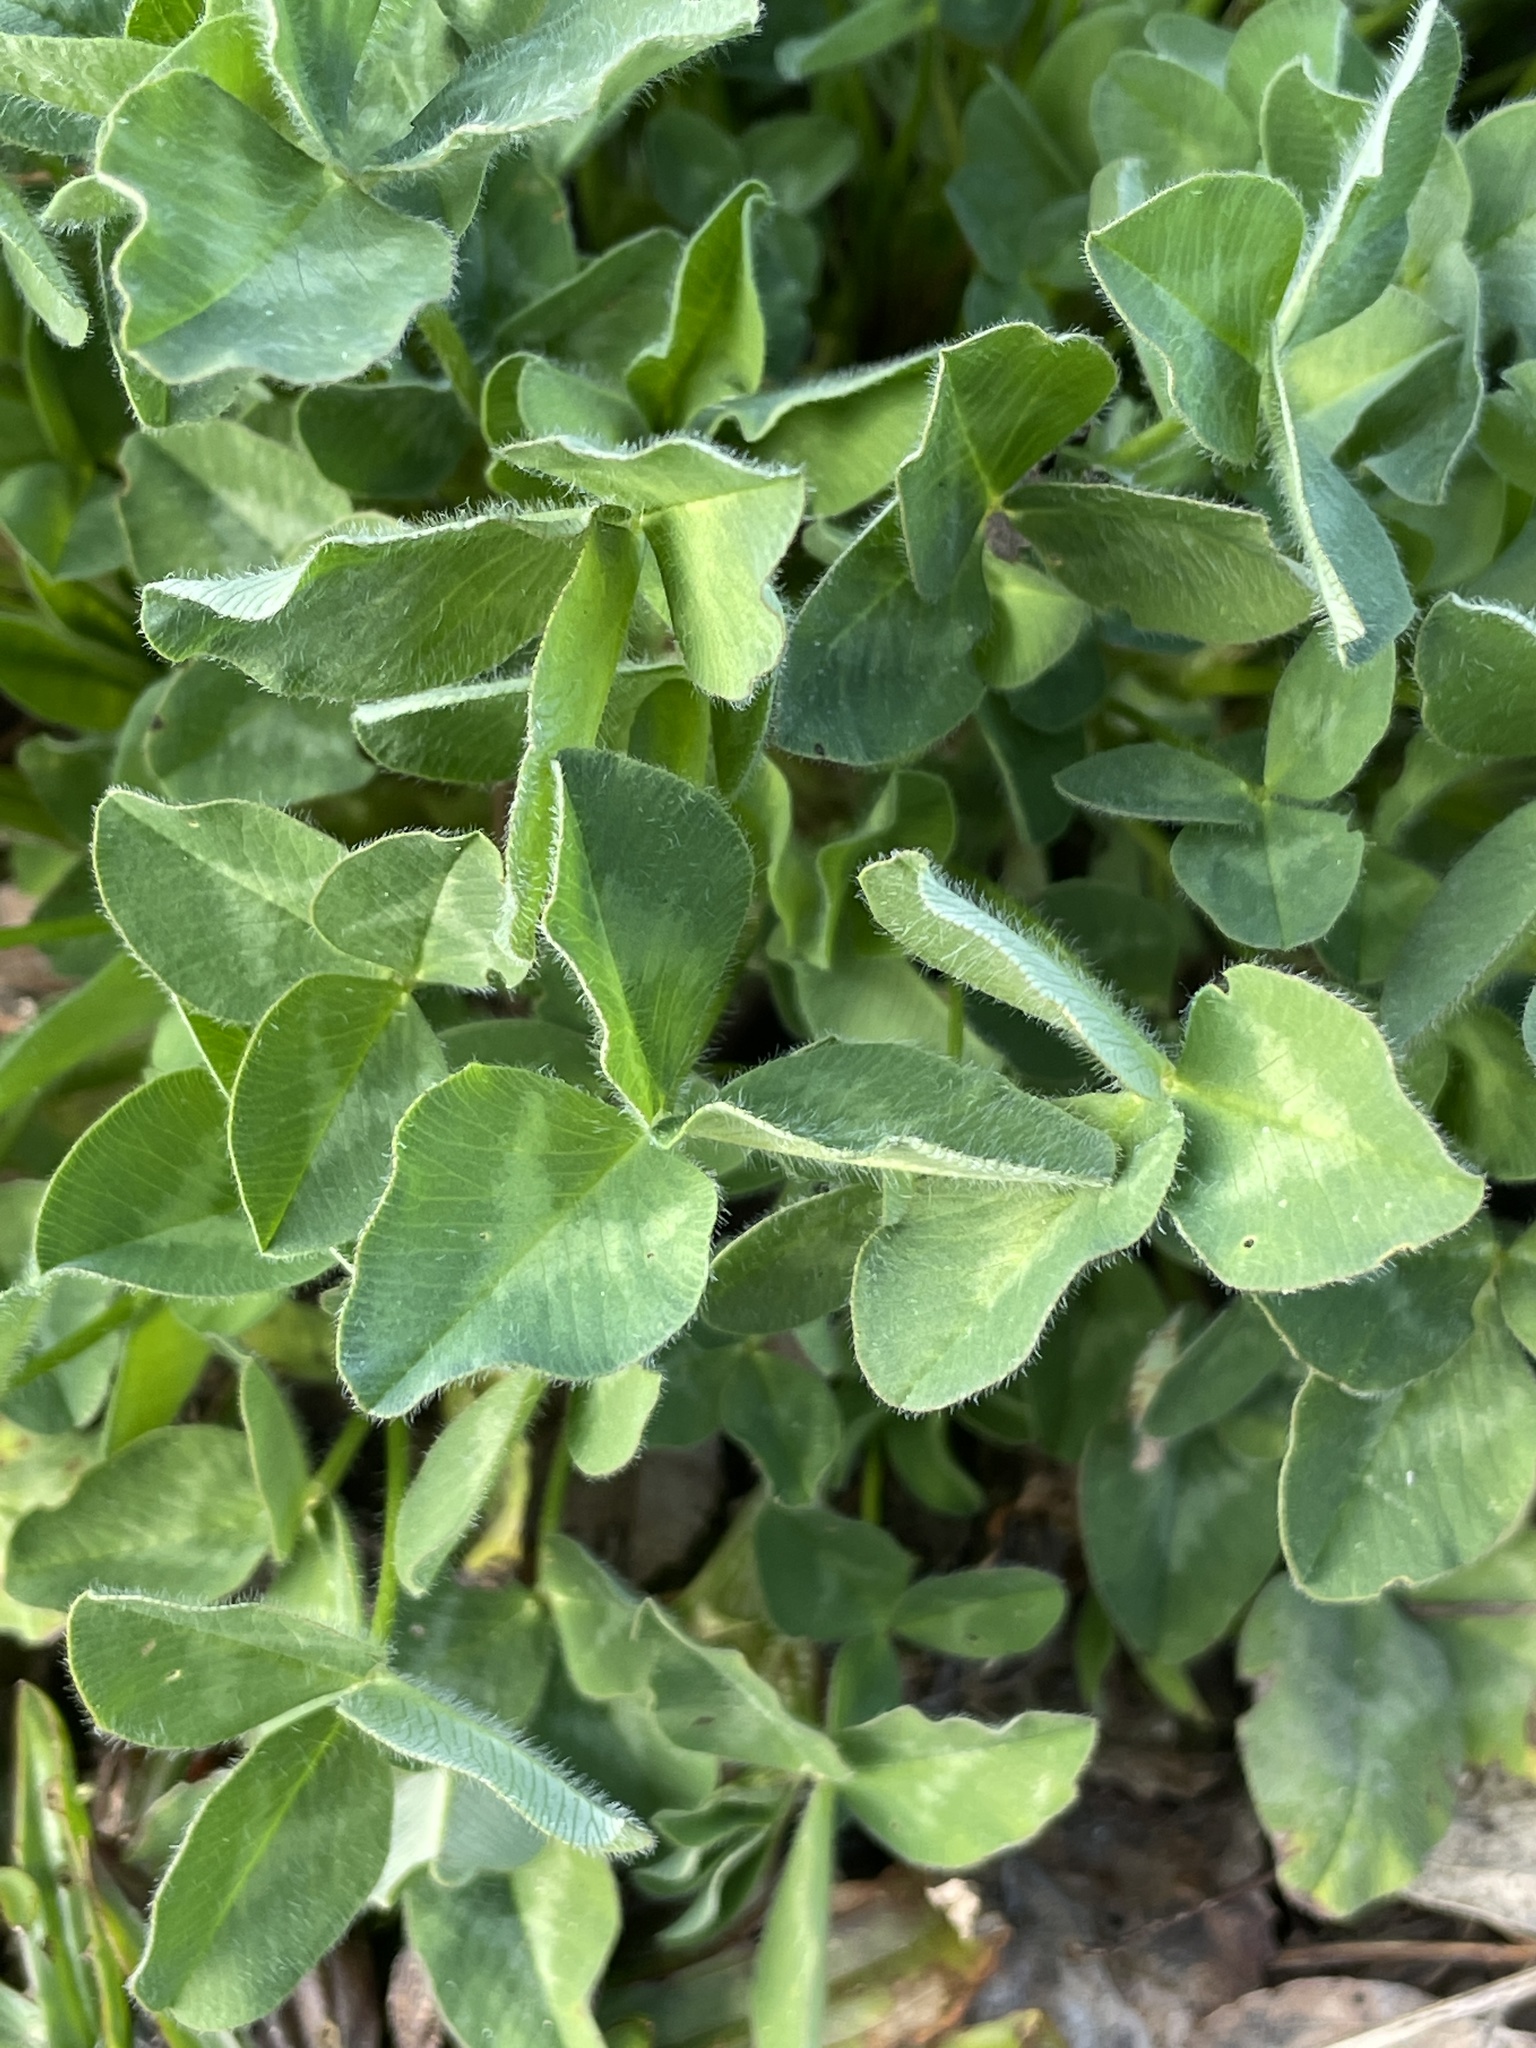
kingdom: Plantae
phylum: Tracheophyta
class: Magnoliopsida
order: Fabales
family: Fabaceae
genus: Trifolium
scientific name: Trifolium pratense
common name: Red clover
